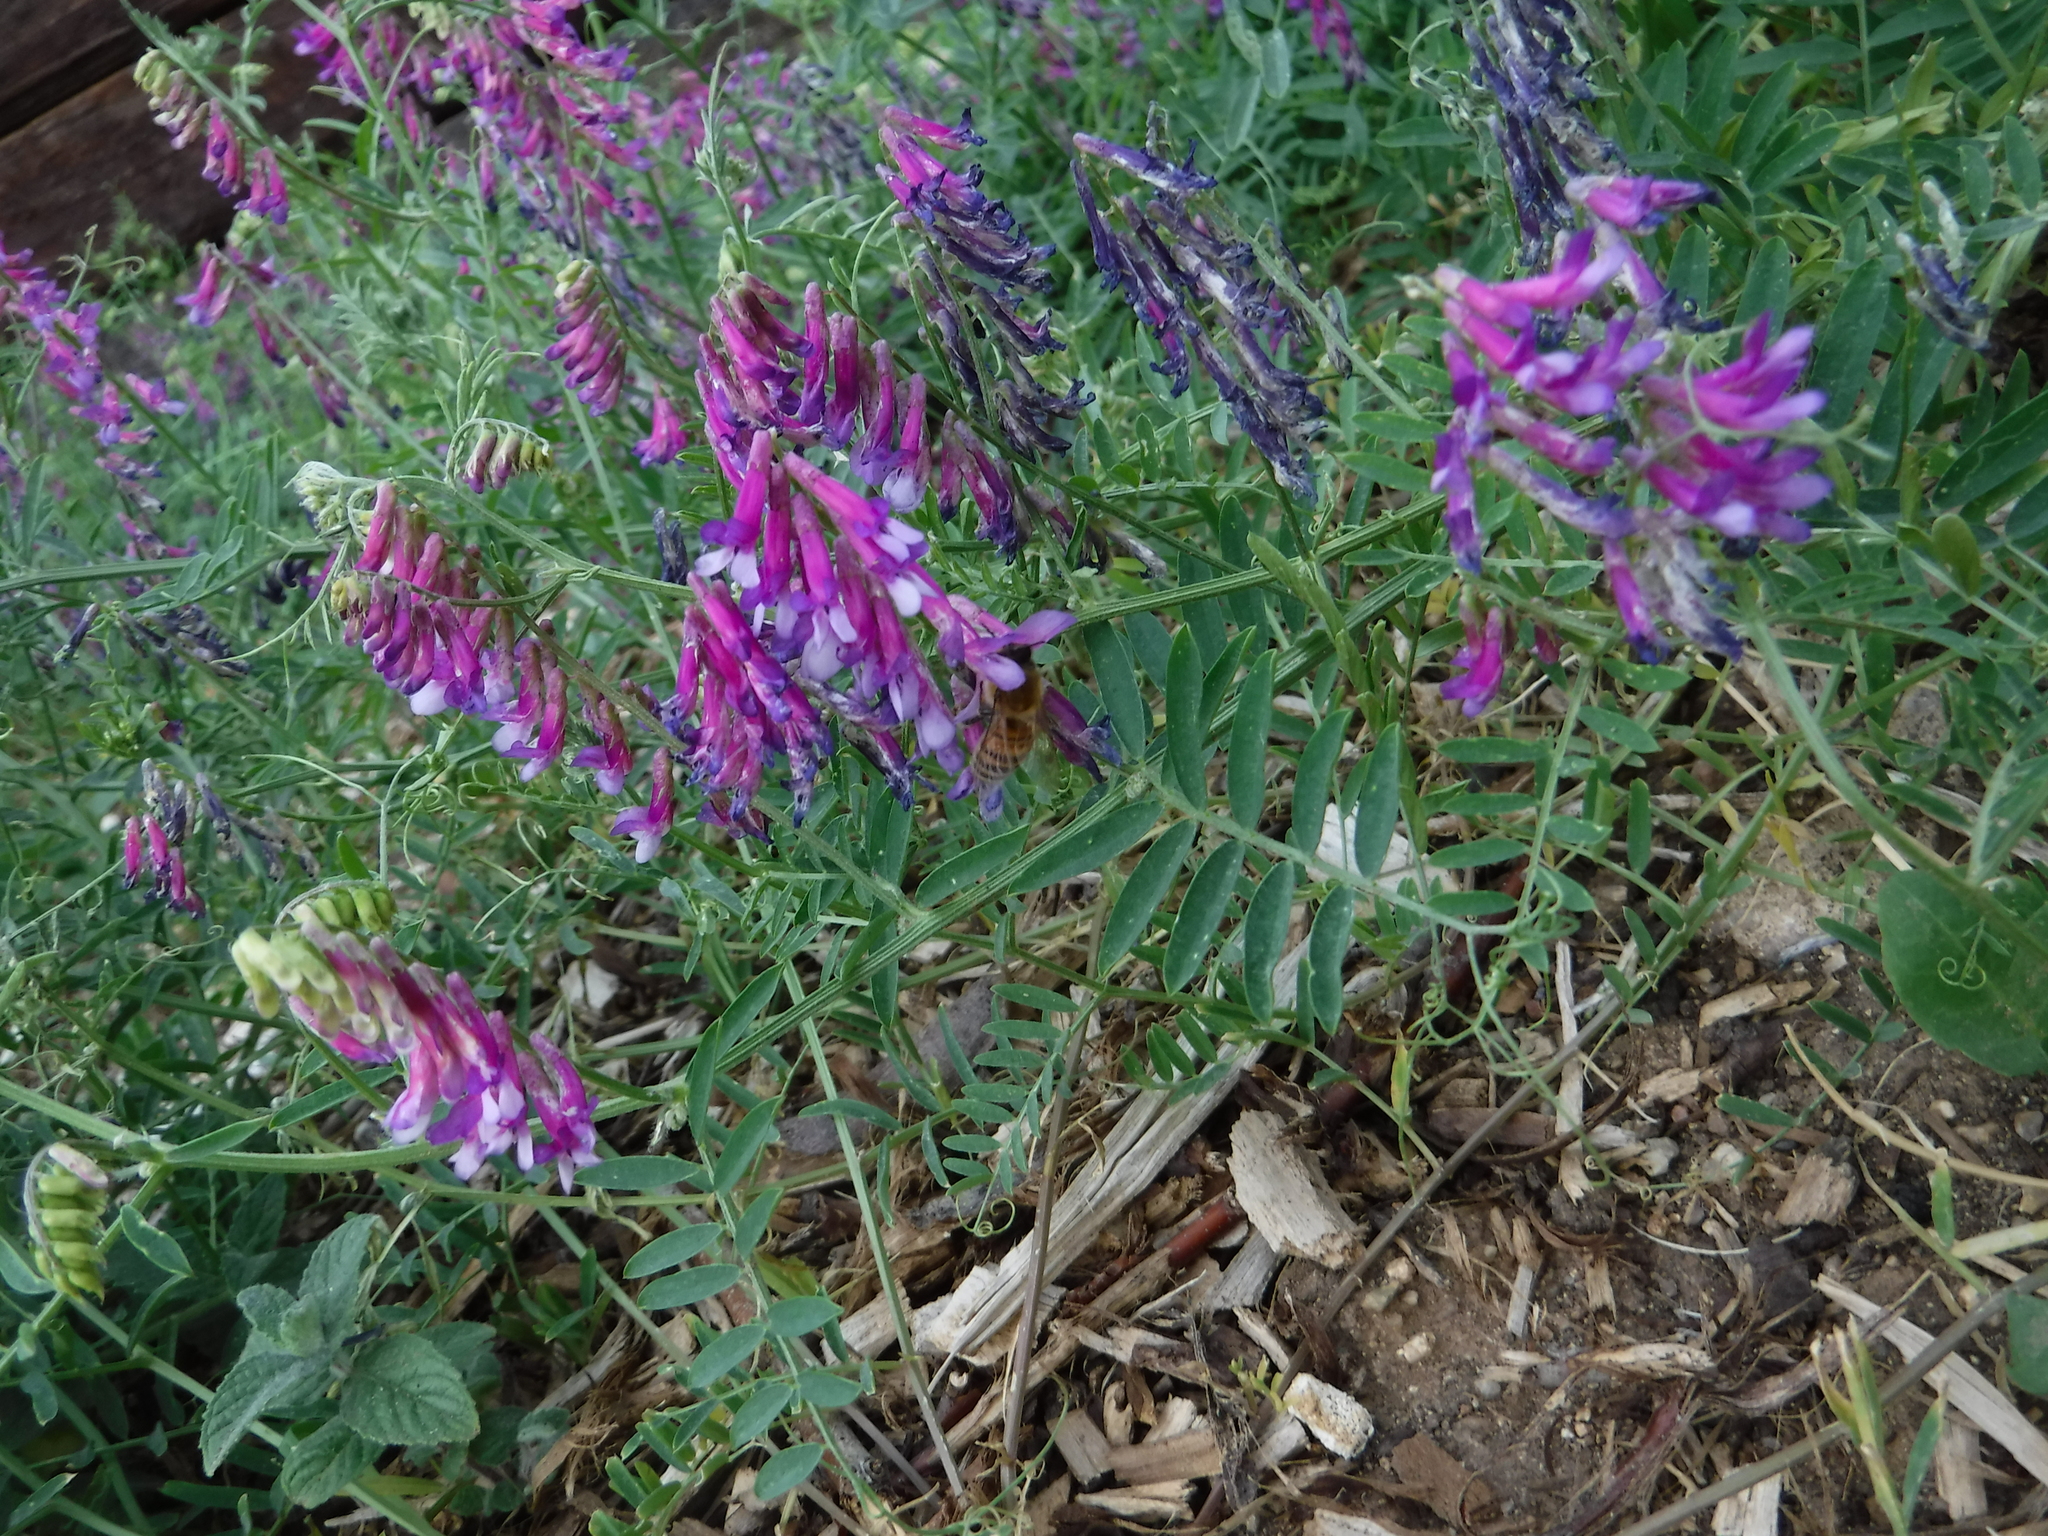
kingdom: Animalia
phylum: Arthropoda
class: Insecta
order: Hymenoptera
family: Apidae
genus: Apis
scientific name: Apis mellifera
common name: Honey bee
